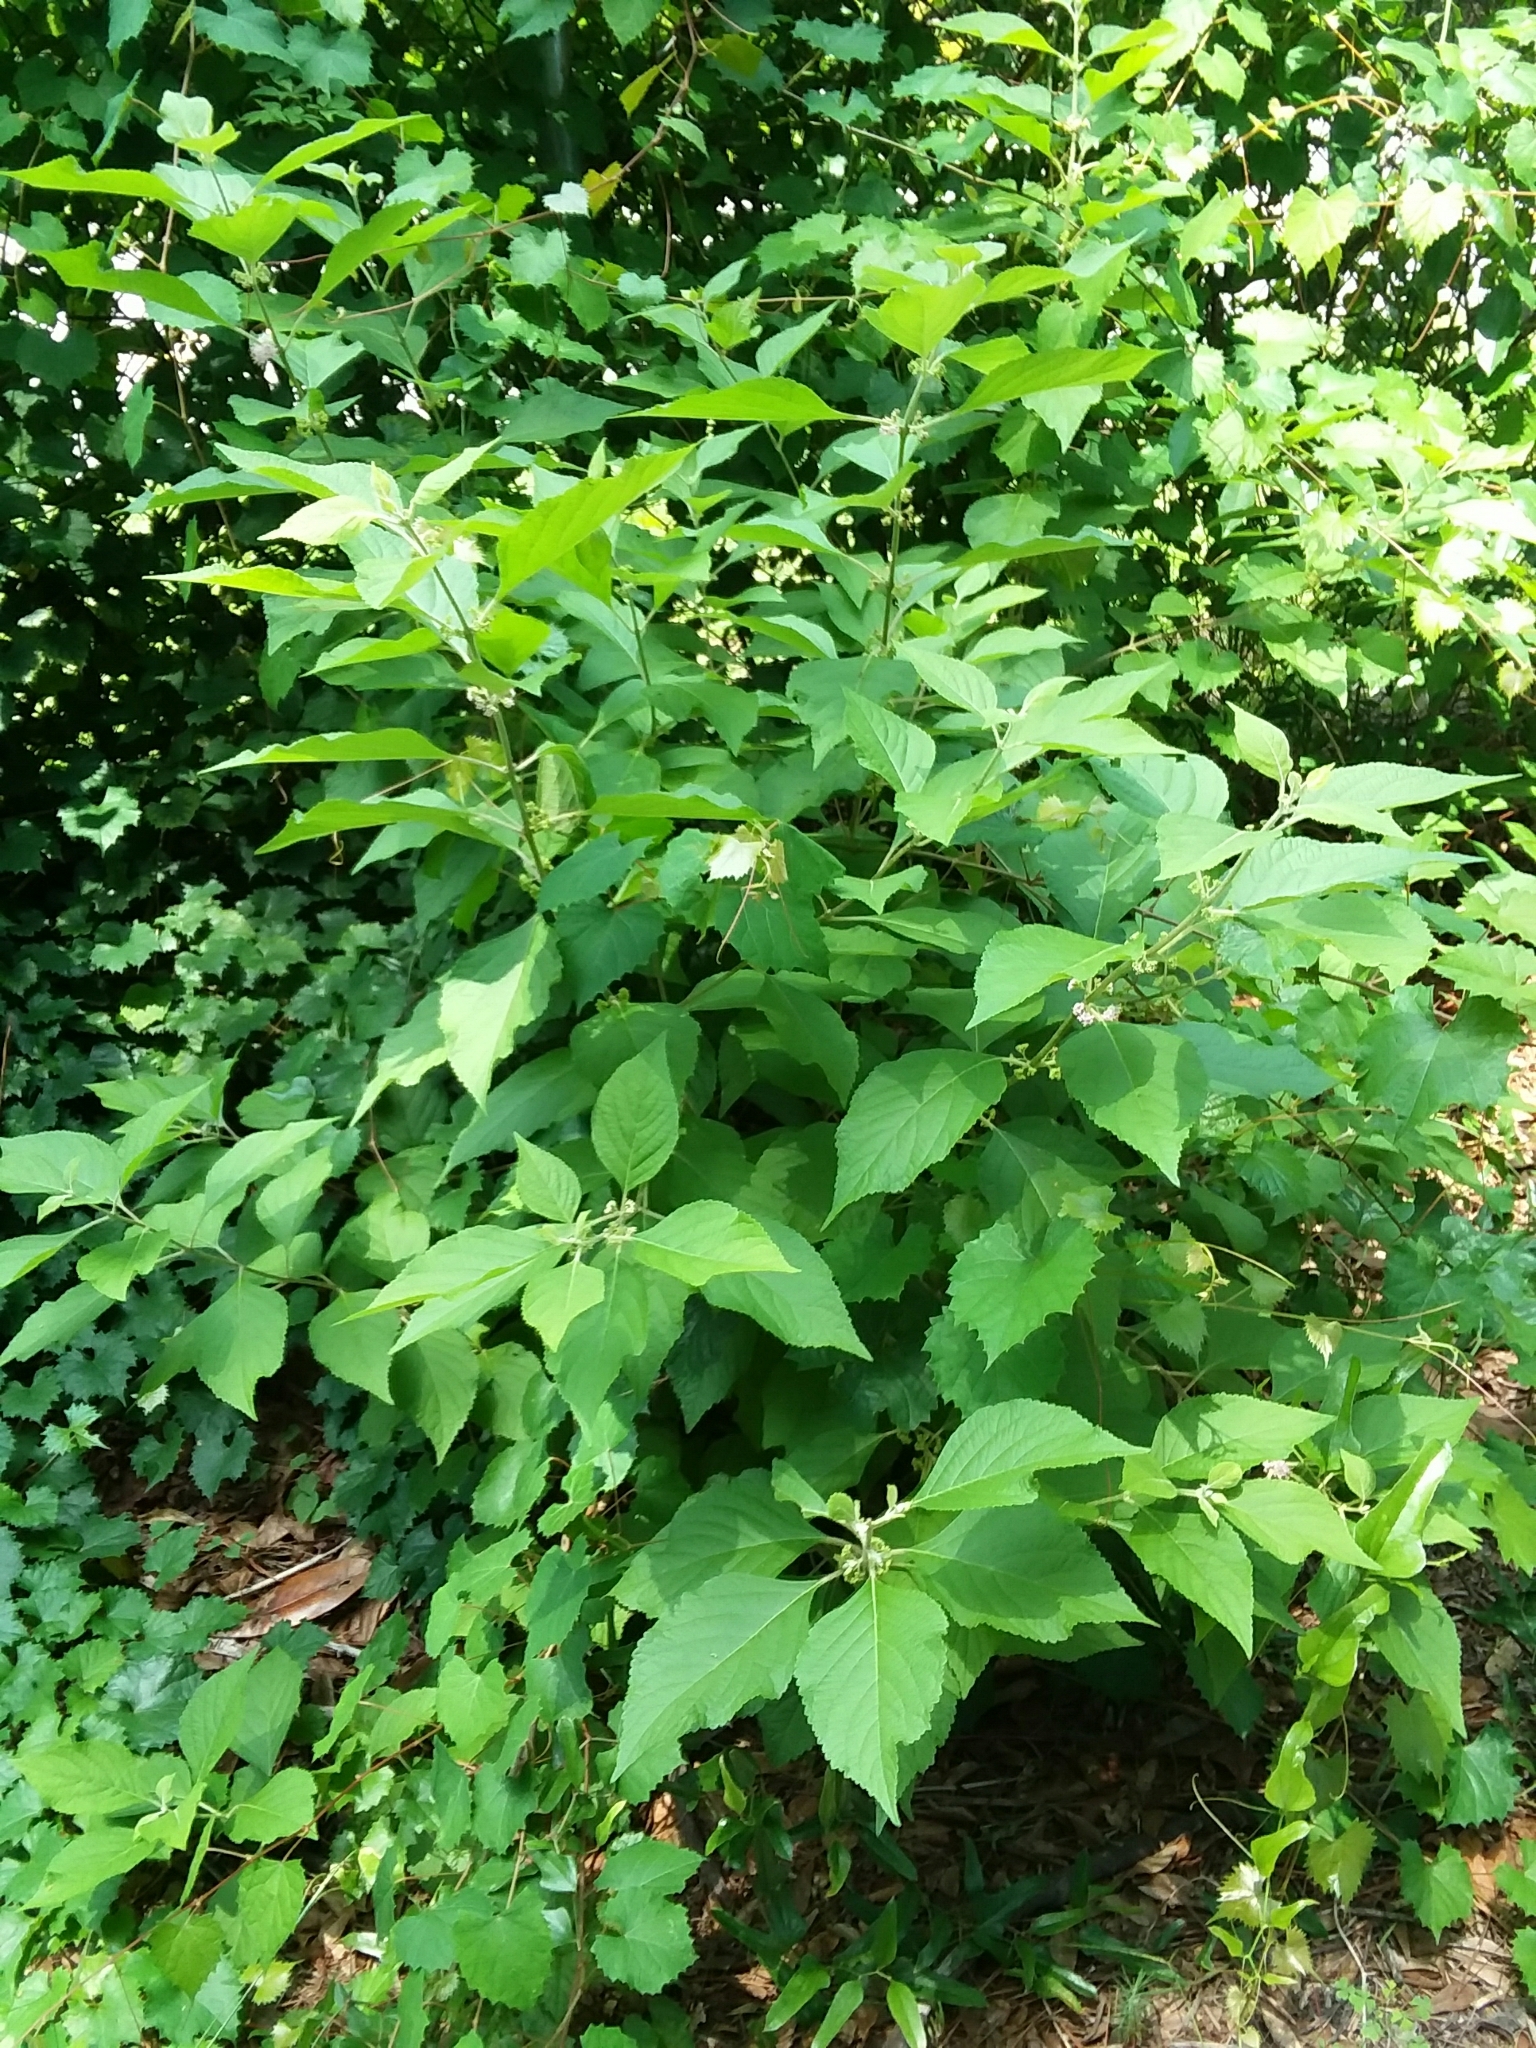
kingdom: Plantae
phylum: Tracheophyta
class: Magnoliopsida
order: Lamiales
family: Lamiaceae
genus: Callicarpa
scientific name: Callicarpa americana
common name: American beautyberry
